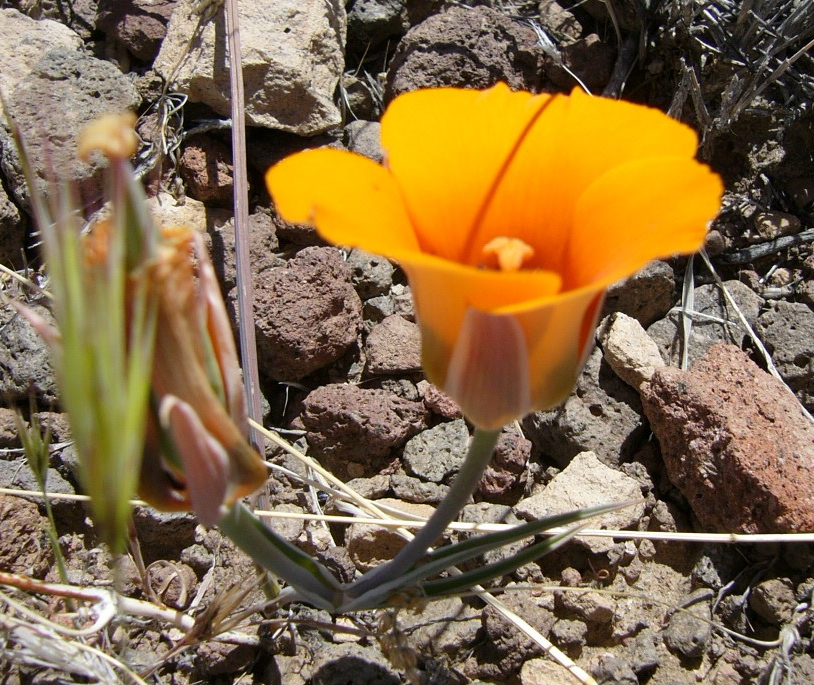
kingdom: Plantae
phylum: Tracheophyta
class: Liliopsida
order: Liliales
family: Liliaceae
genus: Calochortus
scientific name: Calochortus kennedyi
